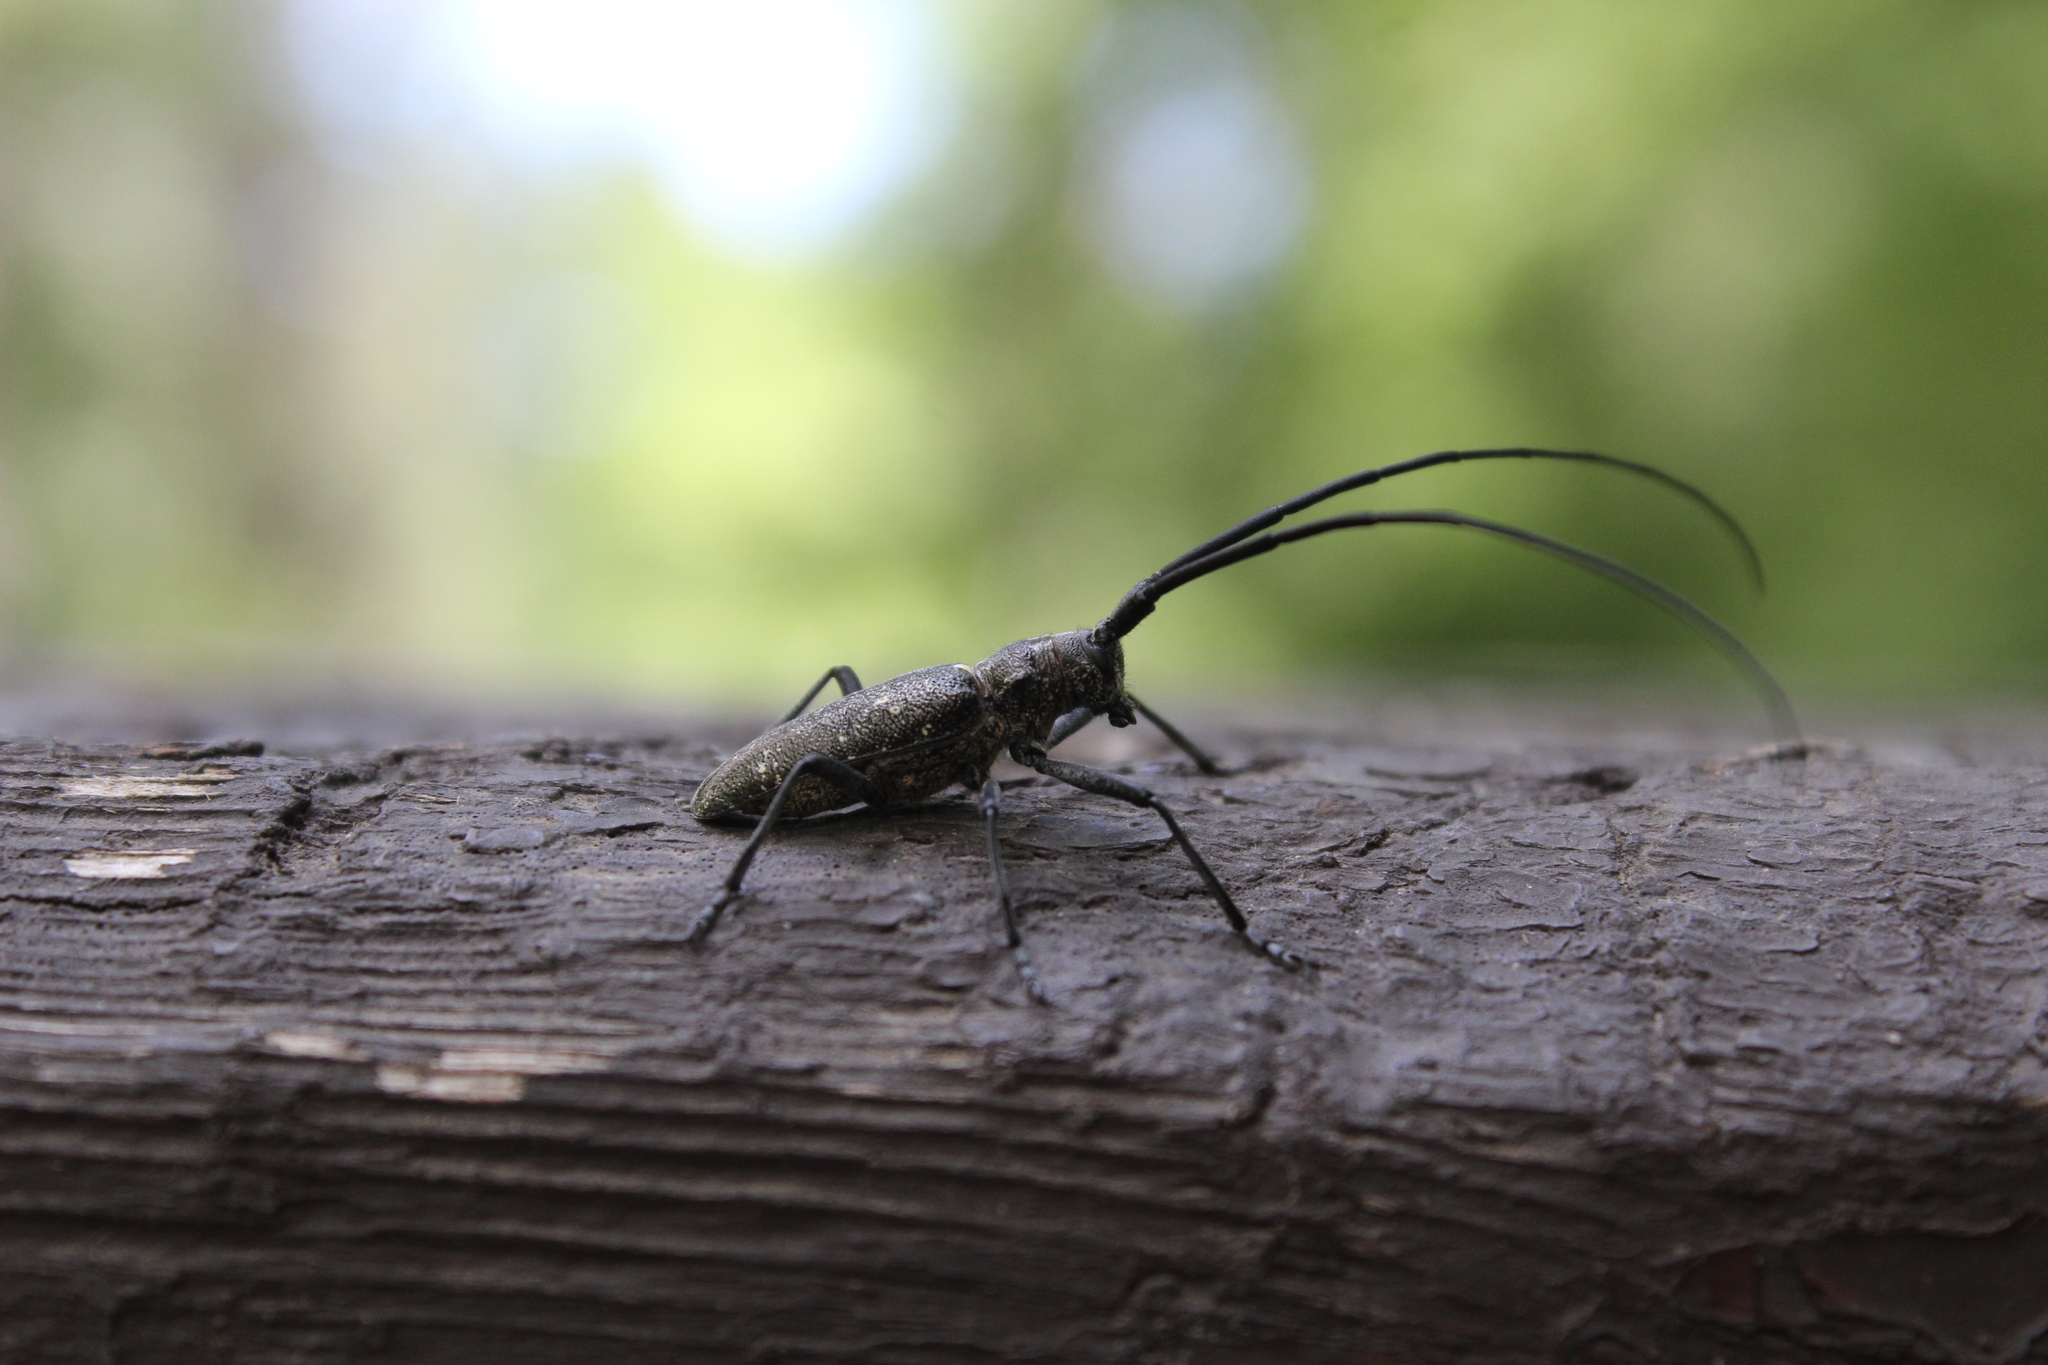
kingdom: Animalia
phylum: Arthropoda
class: Insecta
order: Coleoptera
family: Cerambycidae
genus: Monochamus
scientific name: Monochamus scutellatus
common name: White-spotted sawyer beetle
